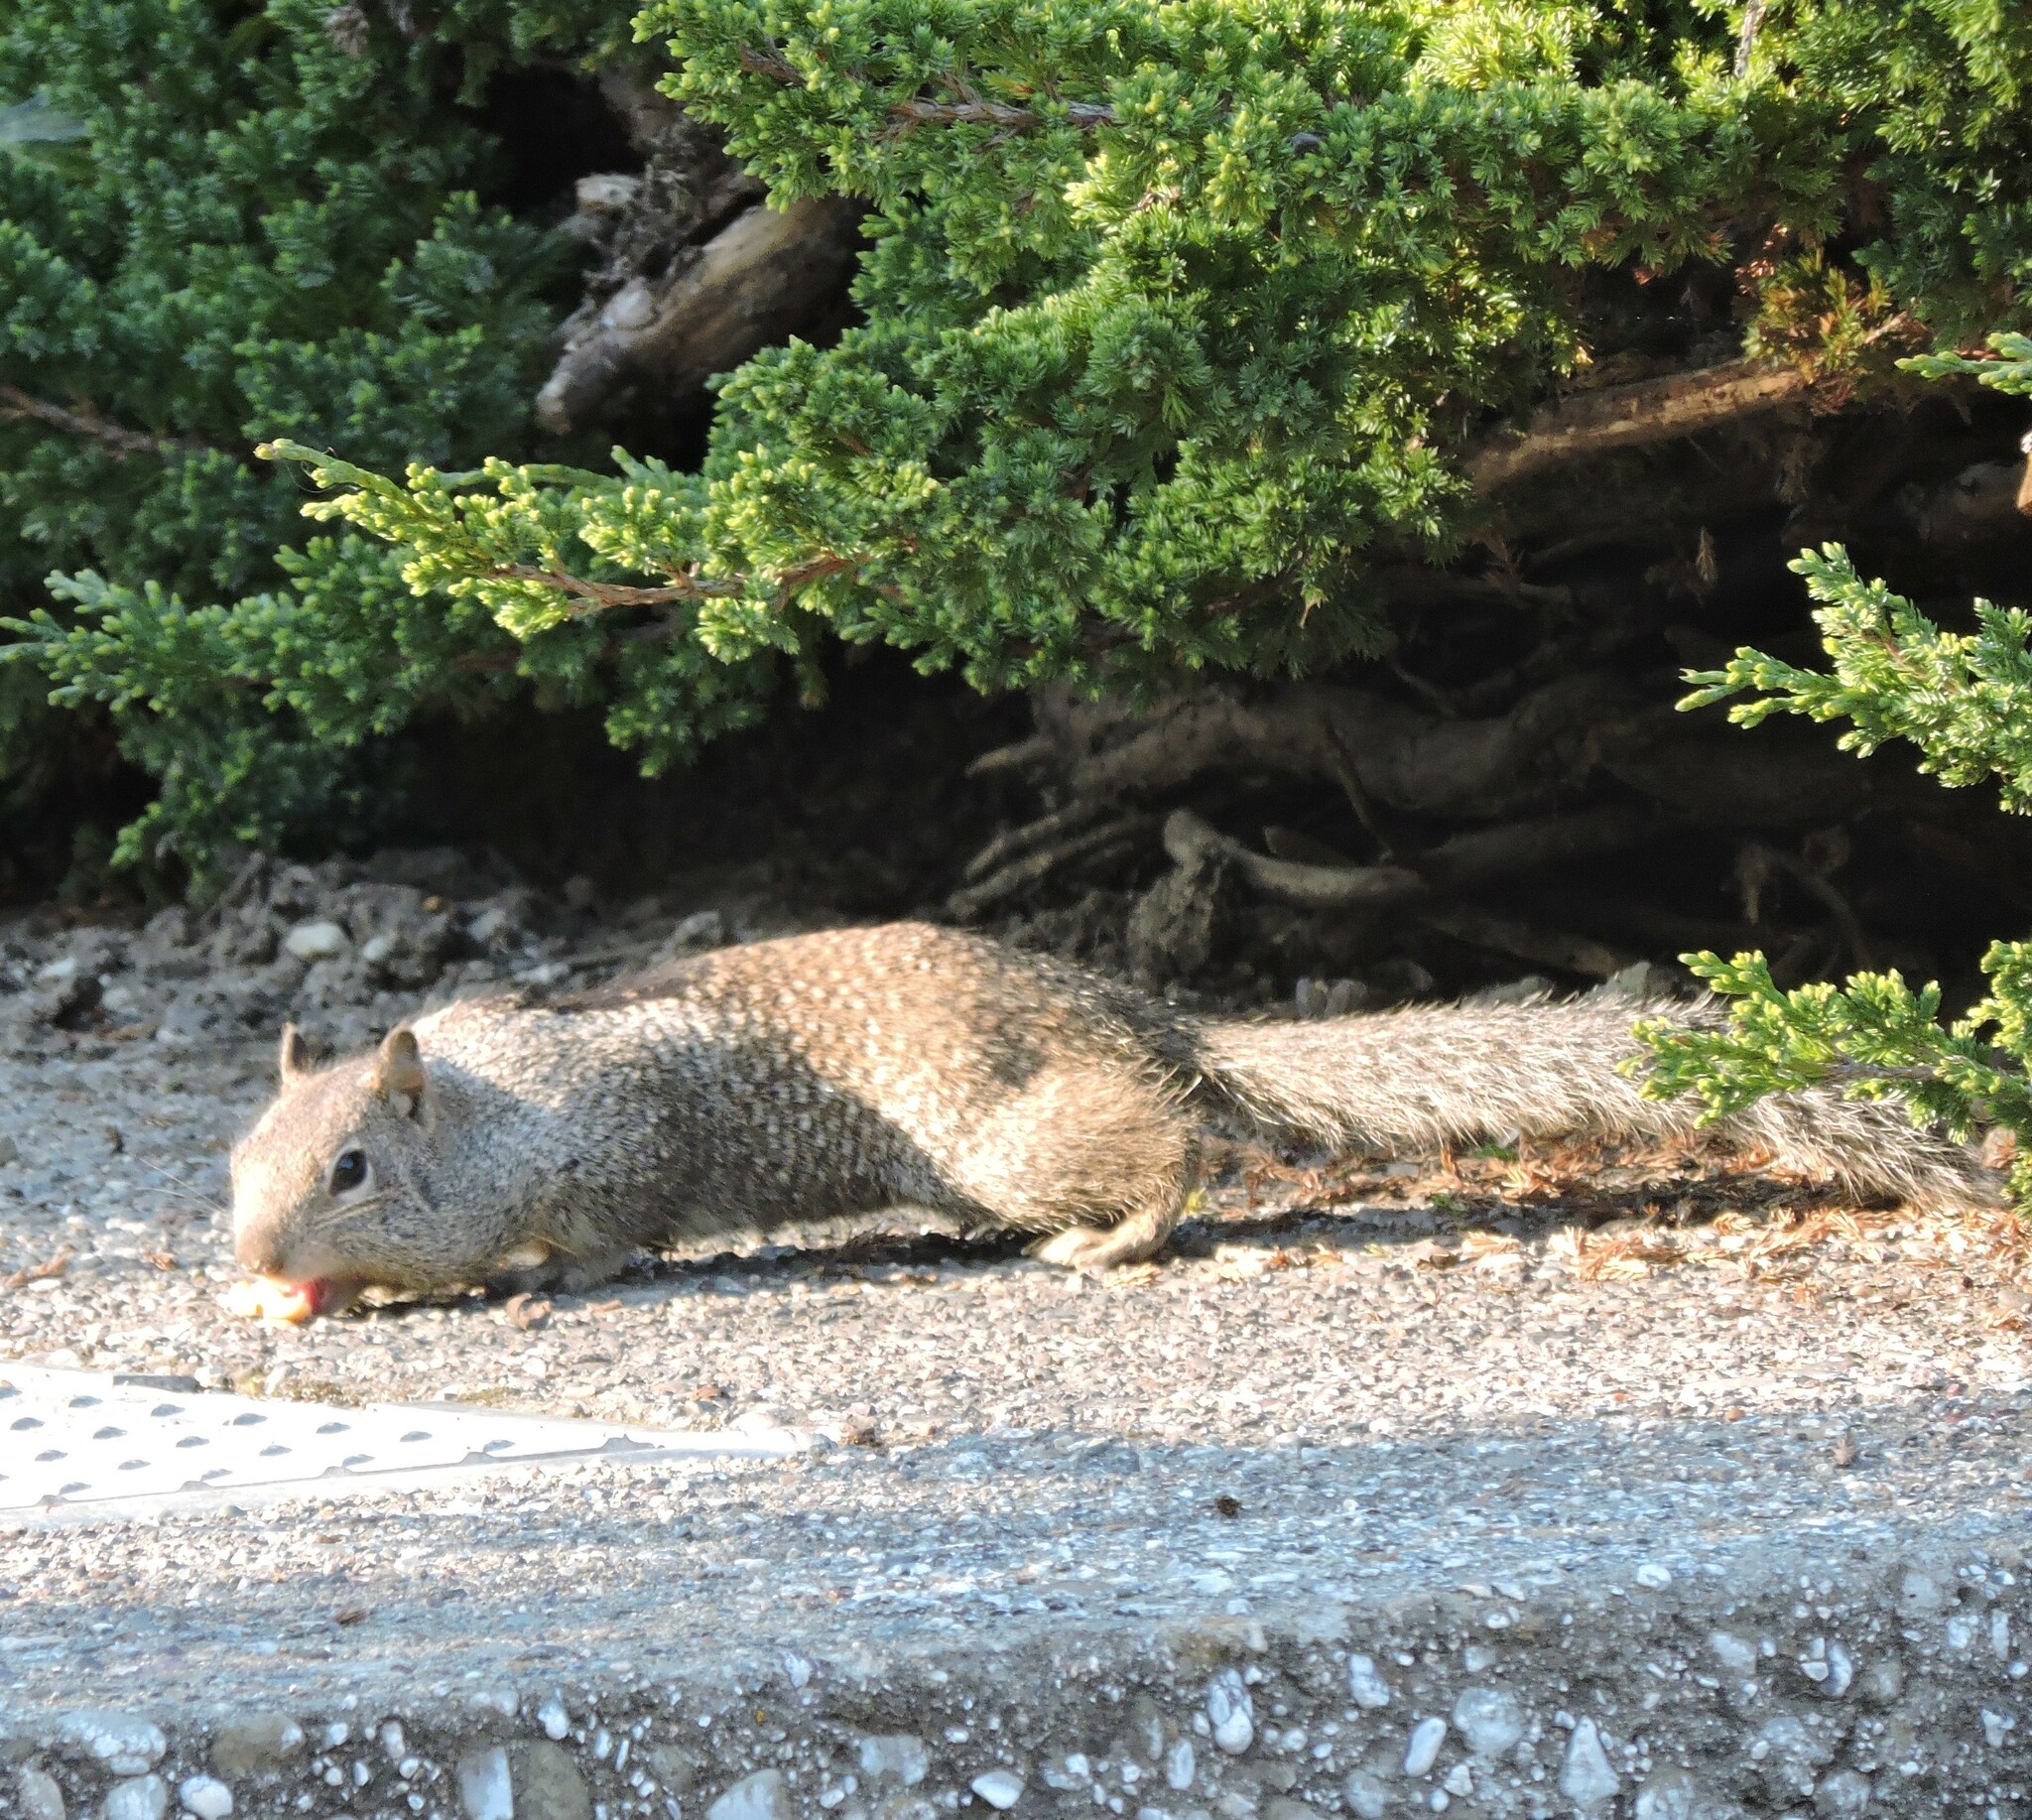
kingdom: Animalia
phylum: Chordata
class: Mammalia
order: Rodentia
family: Sciuridae
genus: Otospermophilus
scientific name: Otospermophilus beecheyi
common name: California ground squirrel
